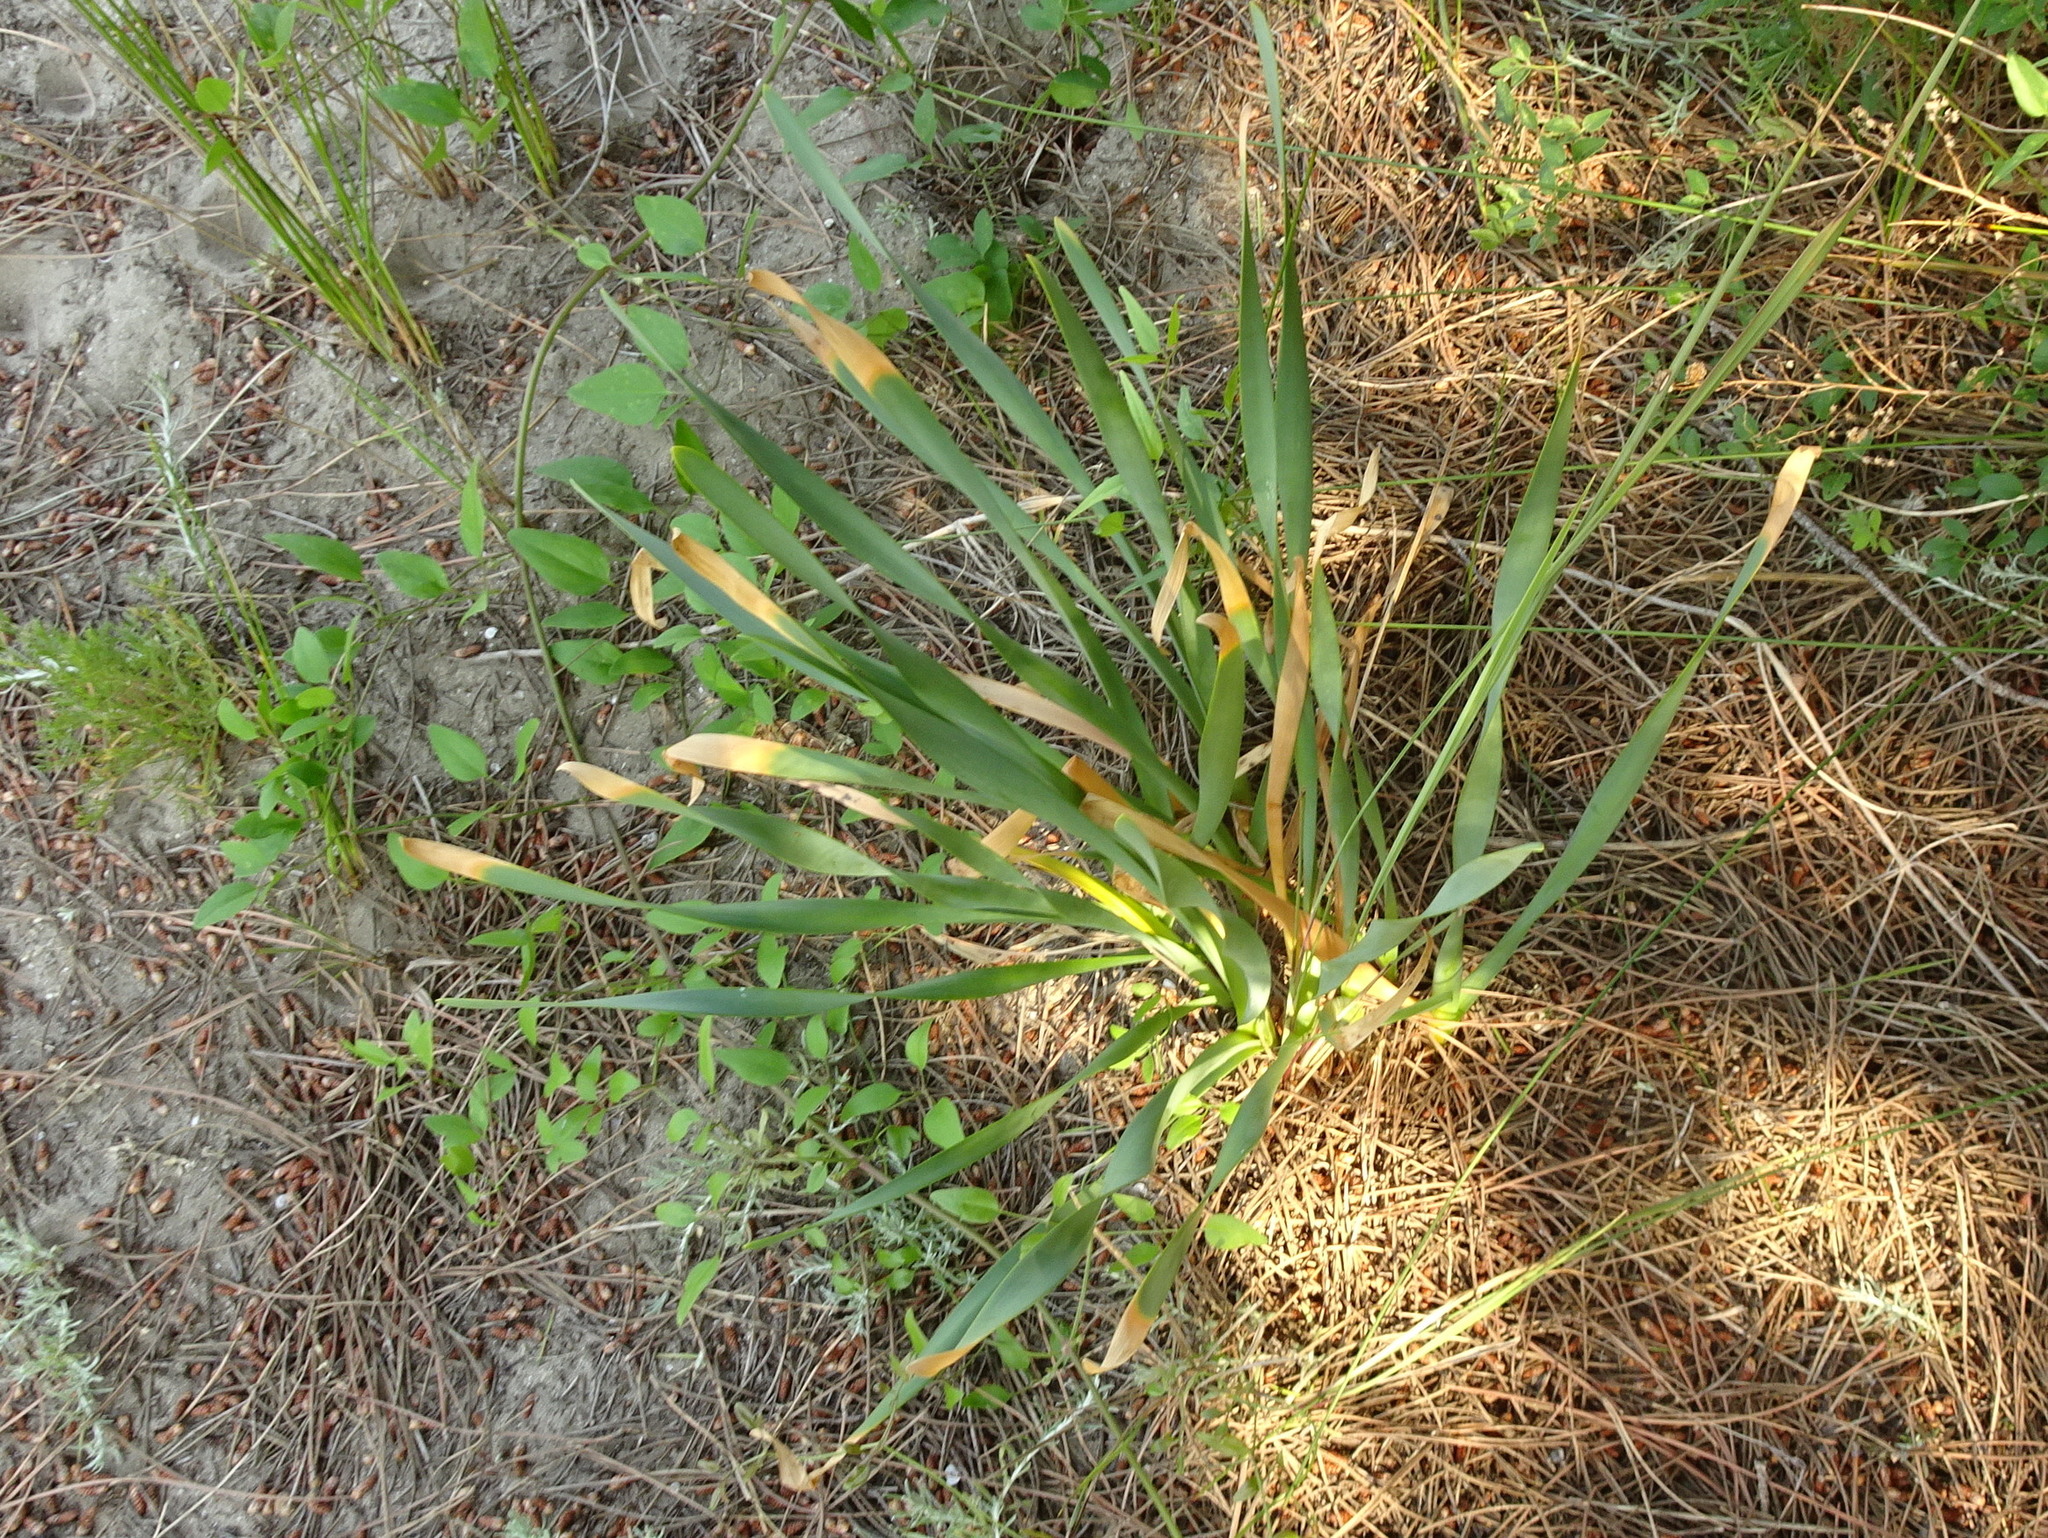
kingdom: Plantae
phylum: Tracheophyta
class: Liliopsida
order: Asparagales
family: Amaryllidaceae
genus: Pancratium
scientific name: Pancratium maritimum
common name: Sea-daffodil
